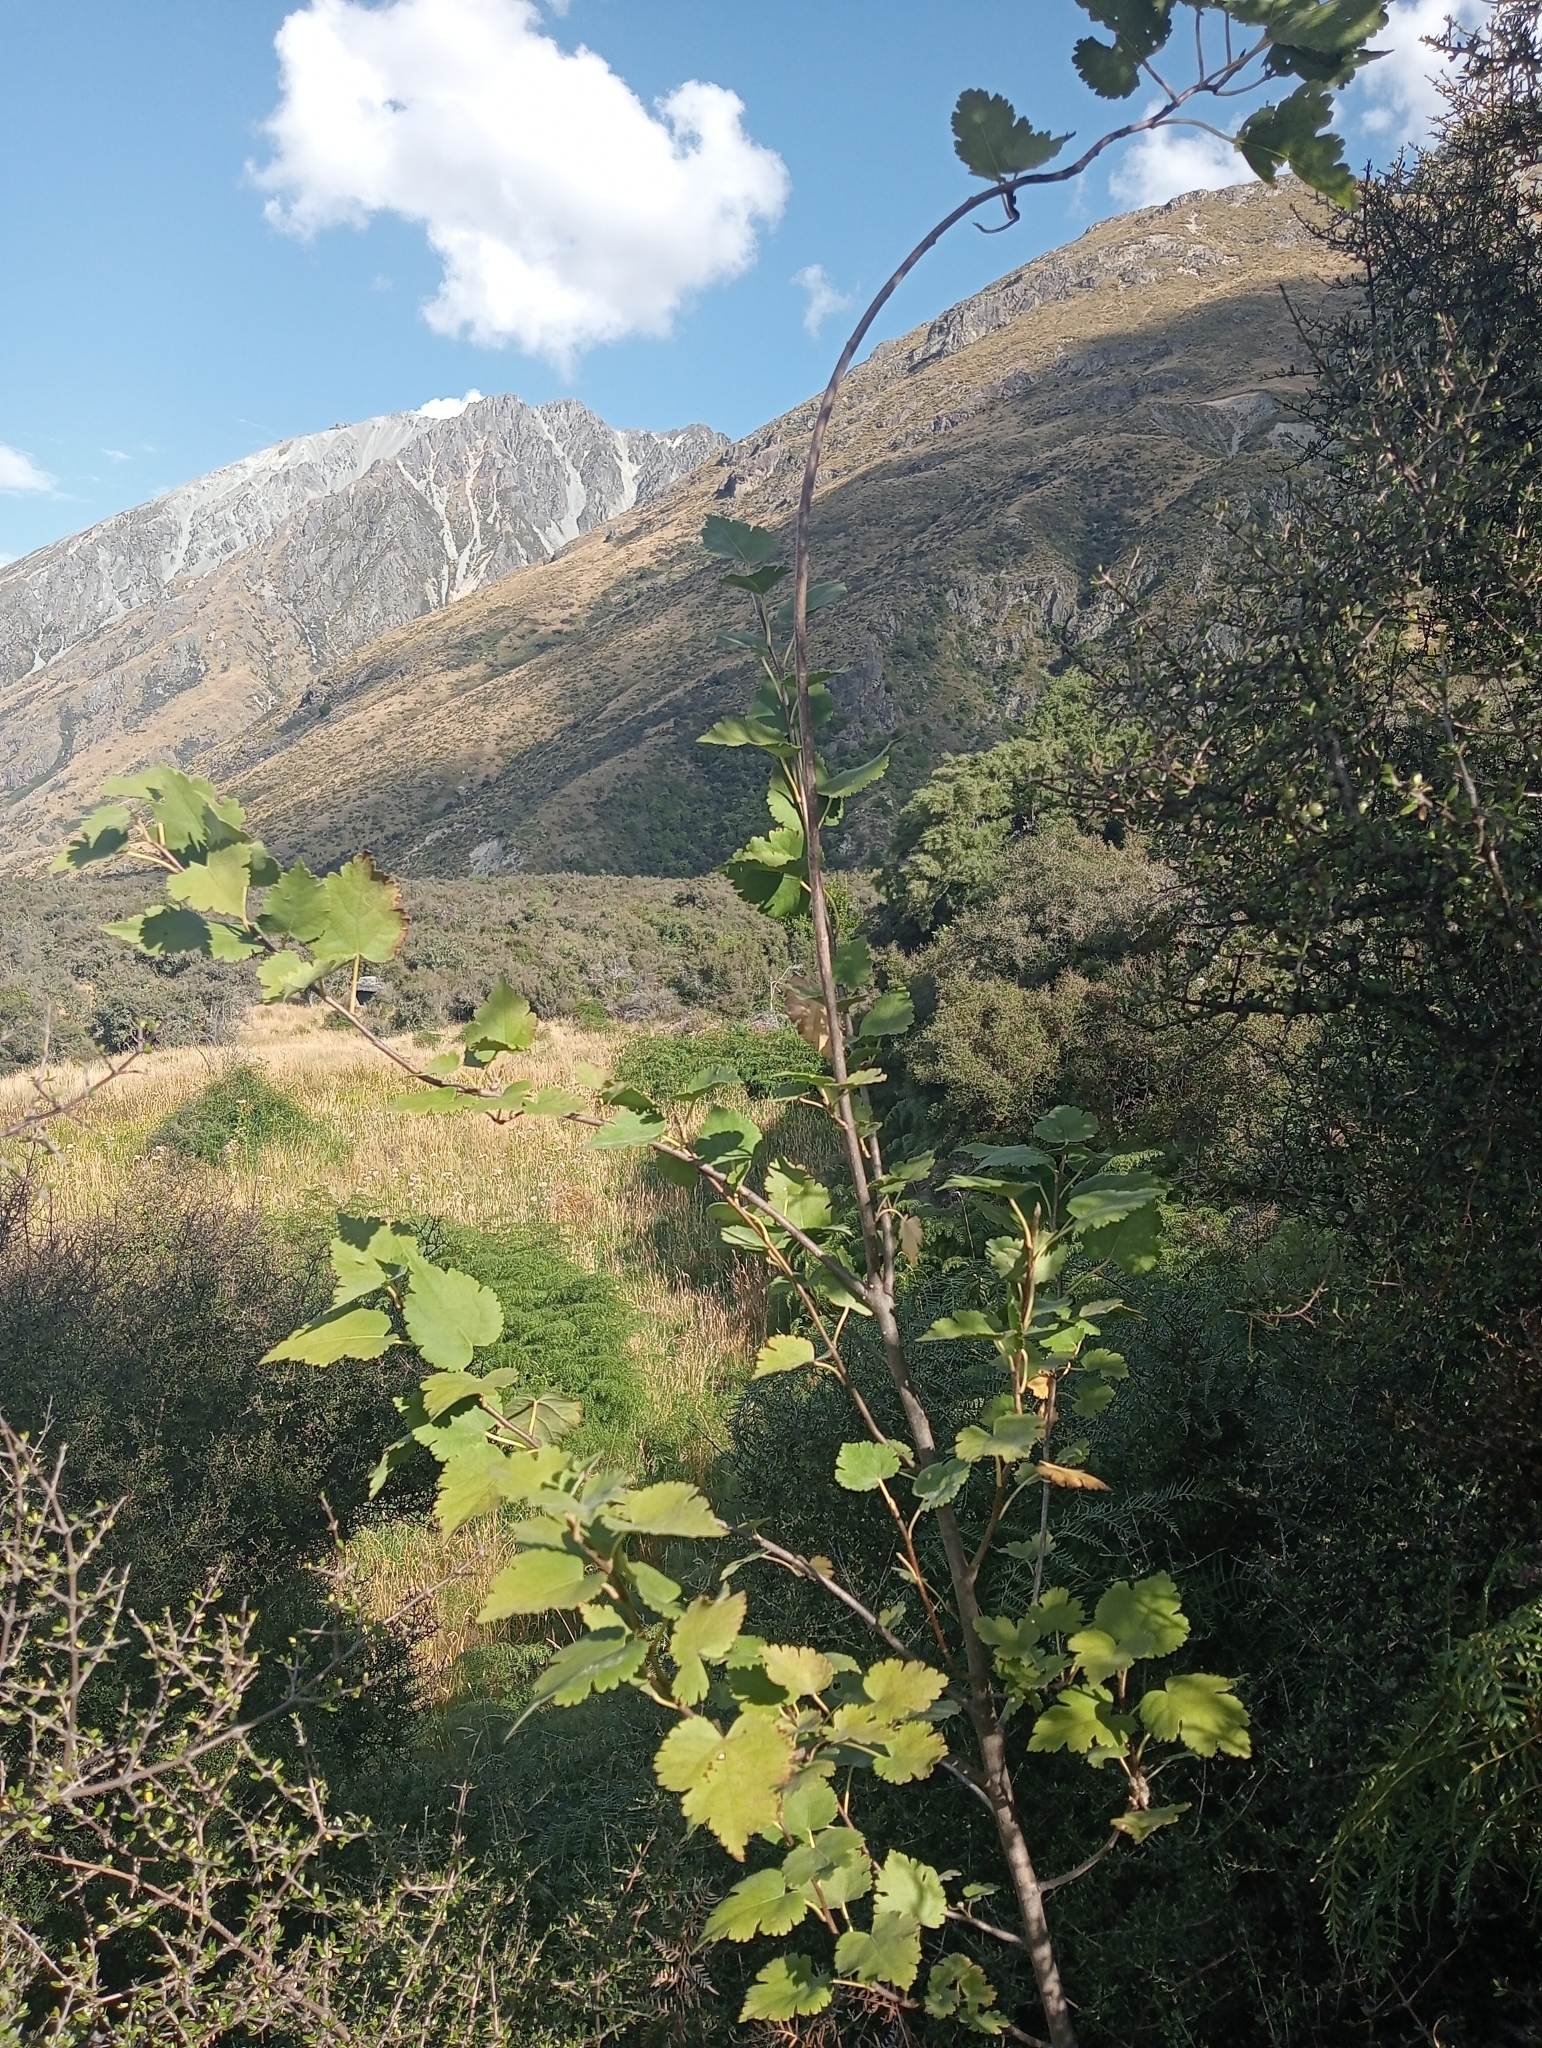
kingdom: Plantae
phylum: Tracheophyta
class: Magnoliopsida
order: Malvales
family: Malvaceae
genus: Hoheria
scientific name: Hoheria lyallii
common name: Lacebark
